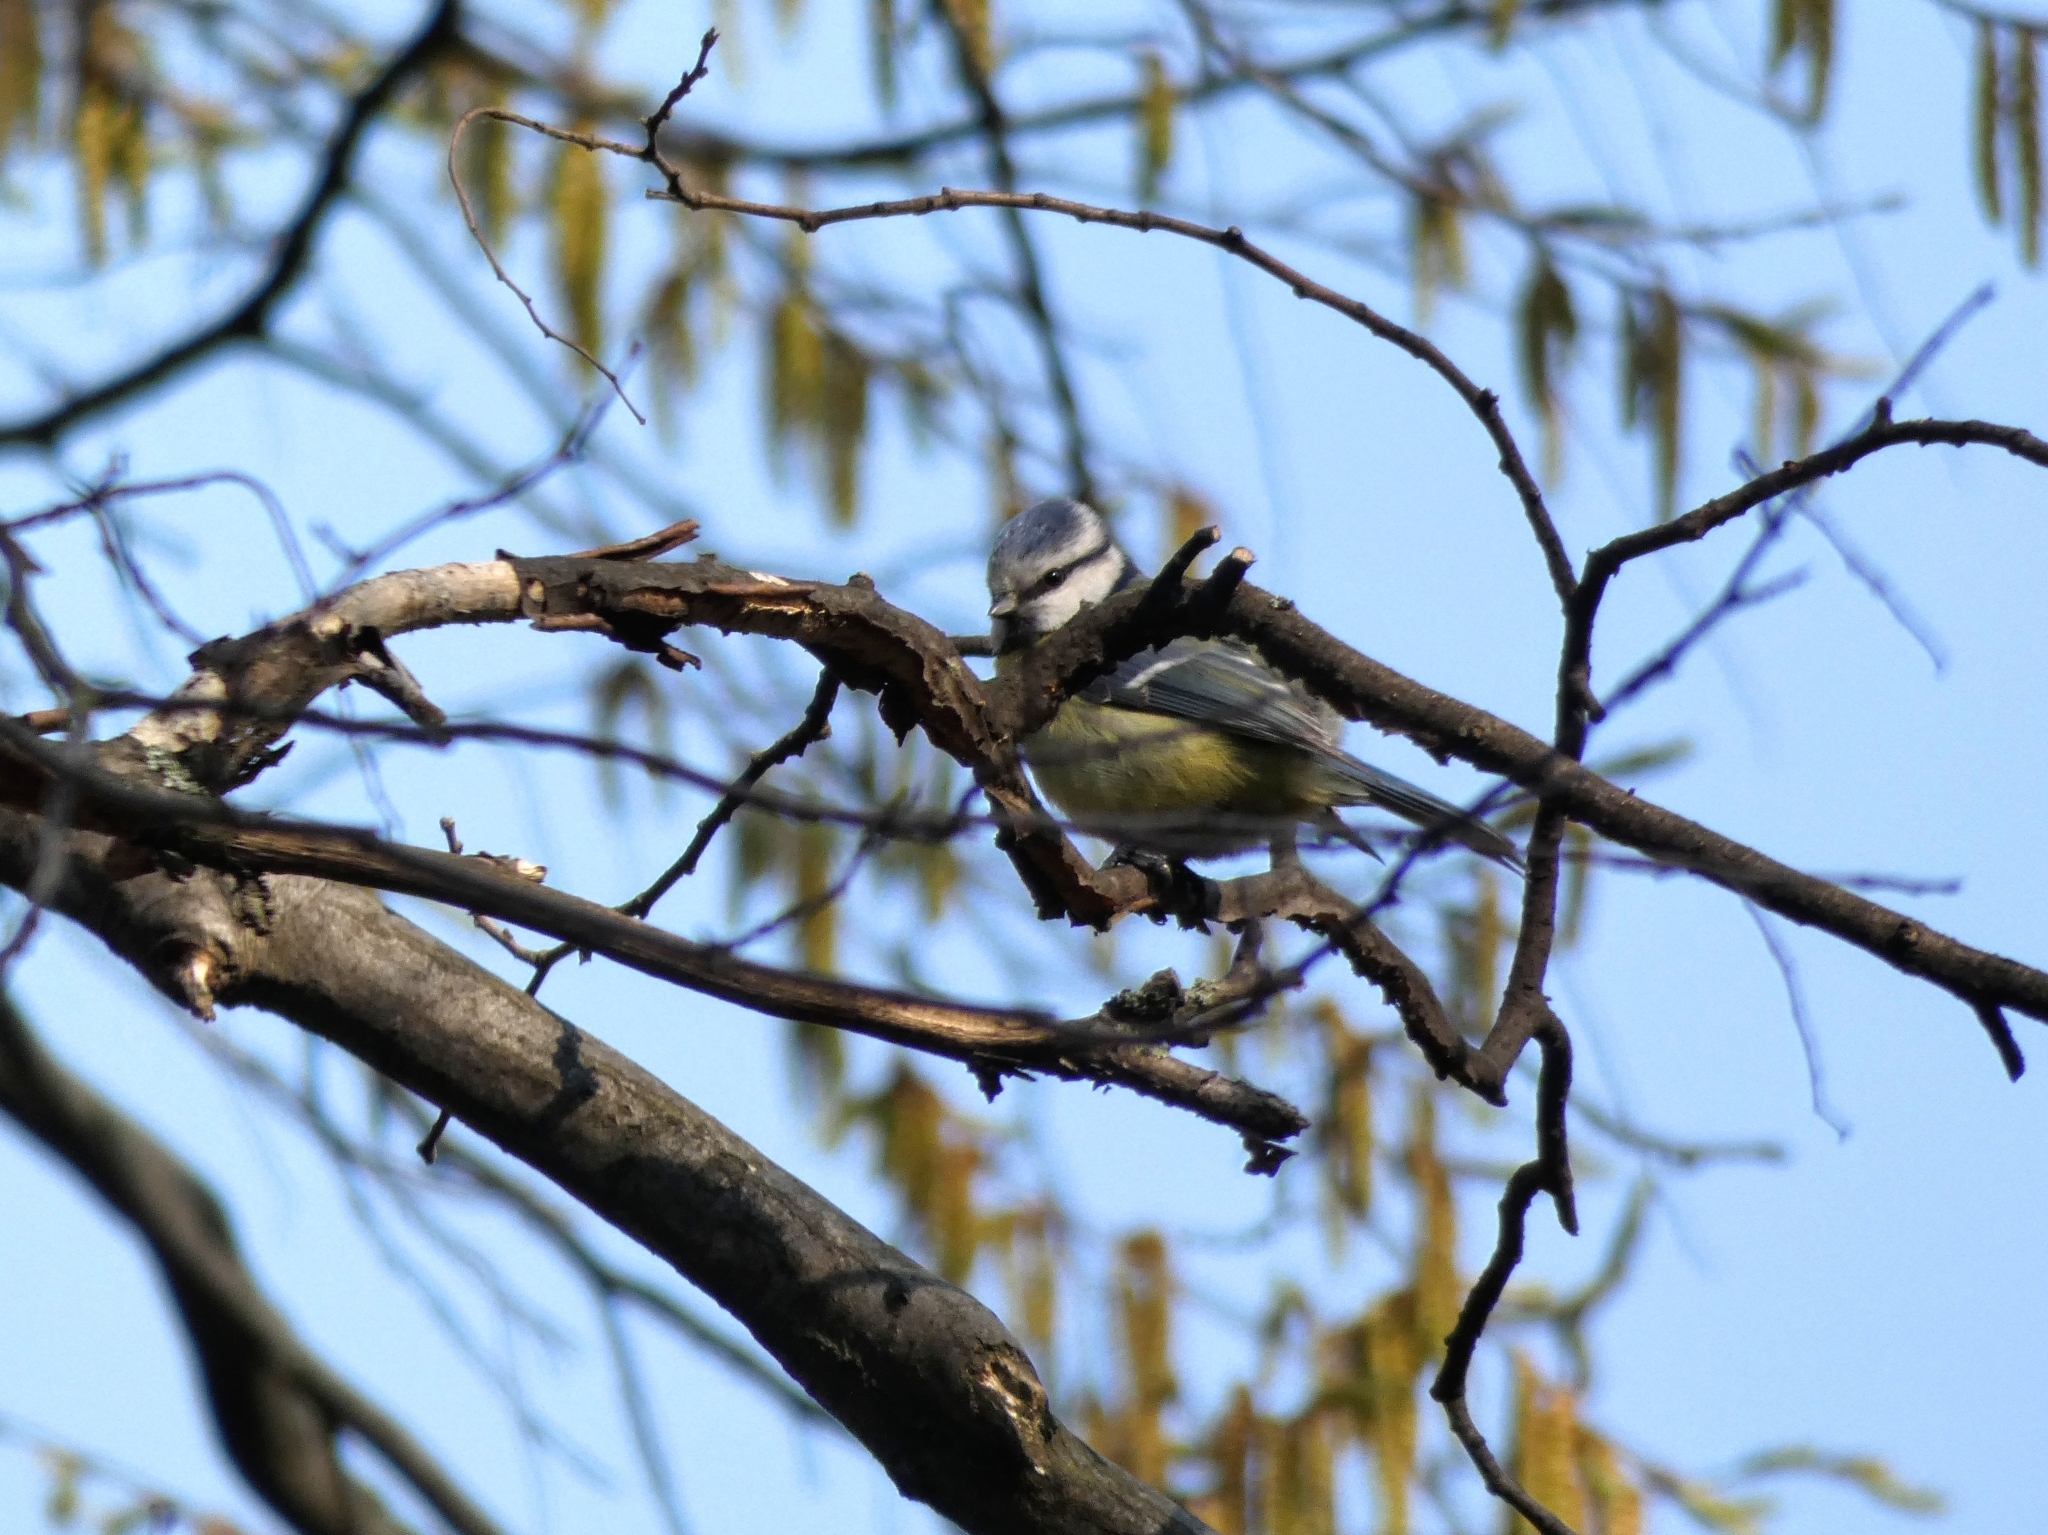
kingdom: Animalia
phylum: Chordata
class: Aves
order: Passeriformes
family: Paridae
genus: Cyanistes
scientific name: Cyanistes caeruleus
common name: Eurasian blue tit
